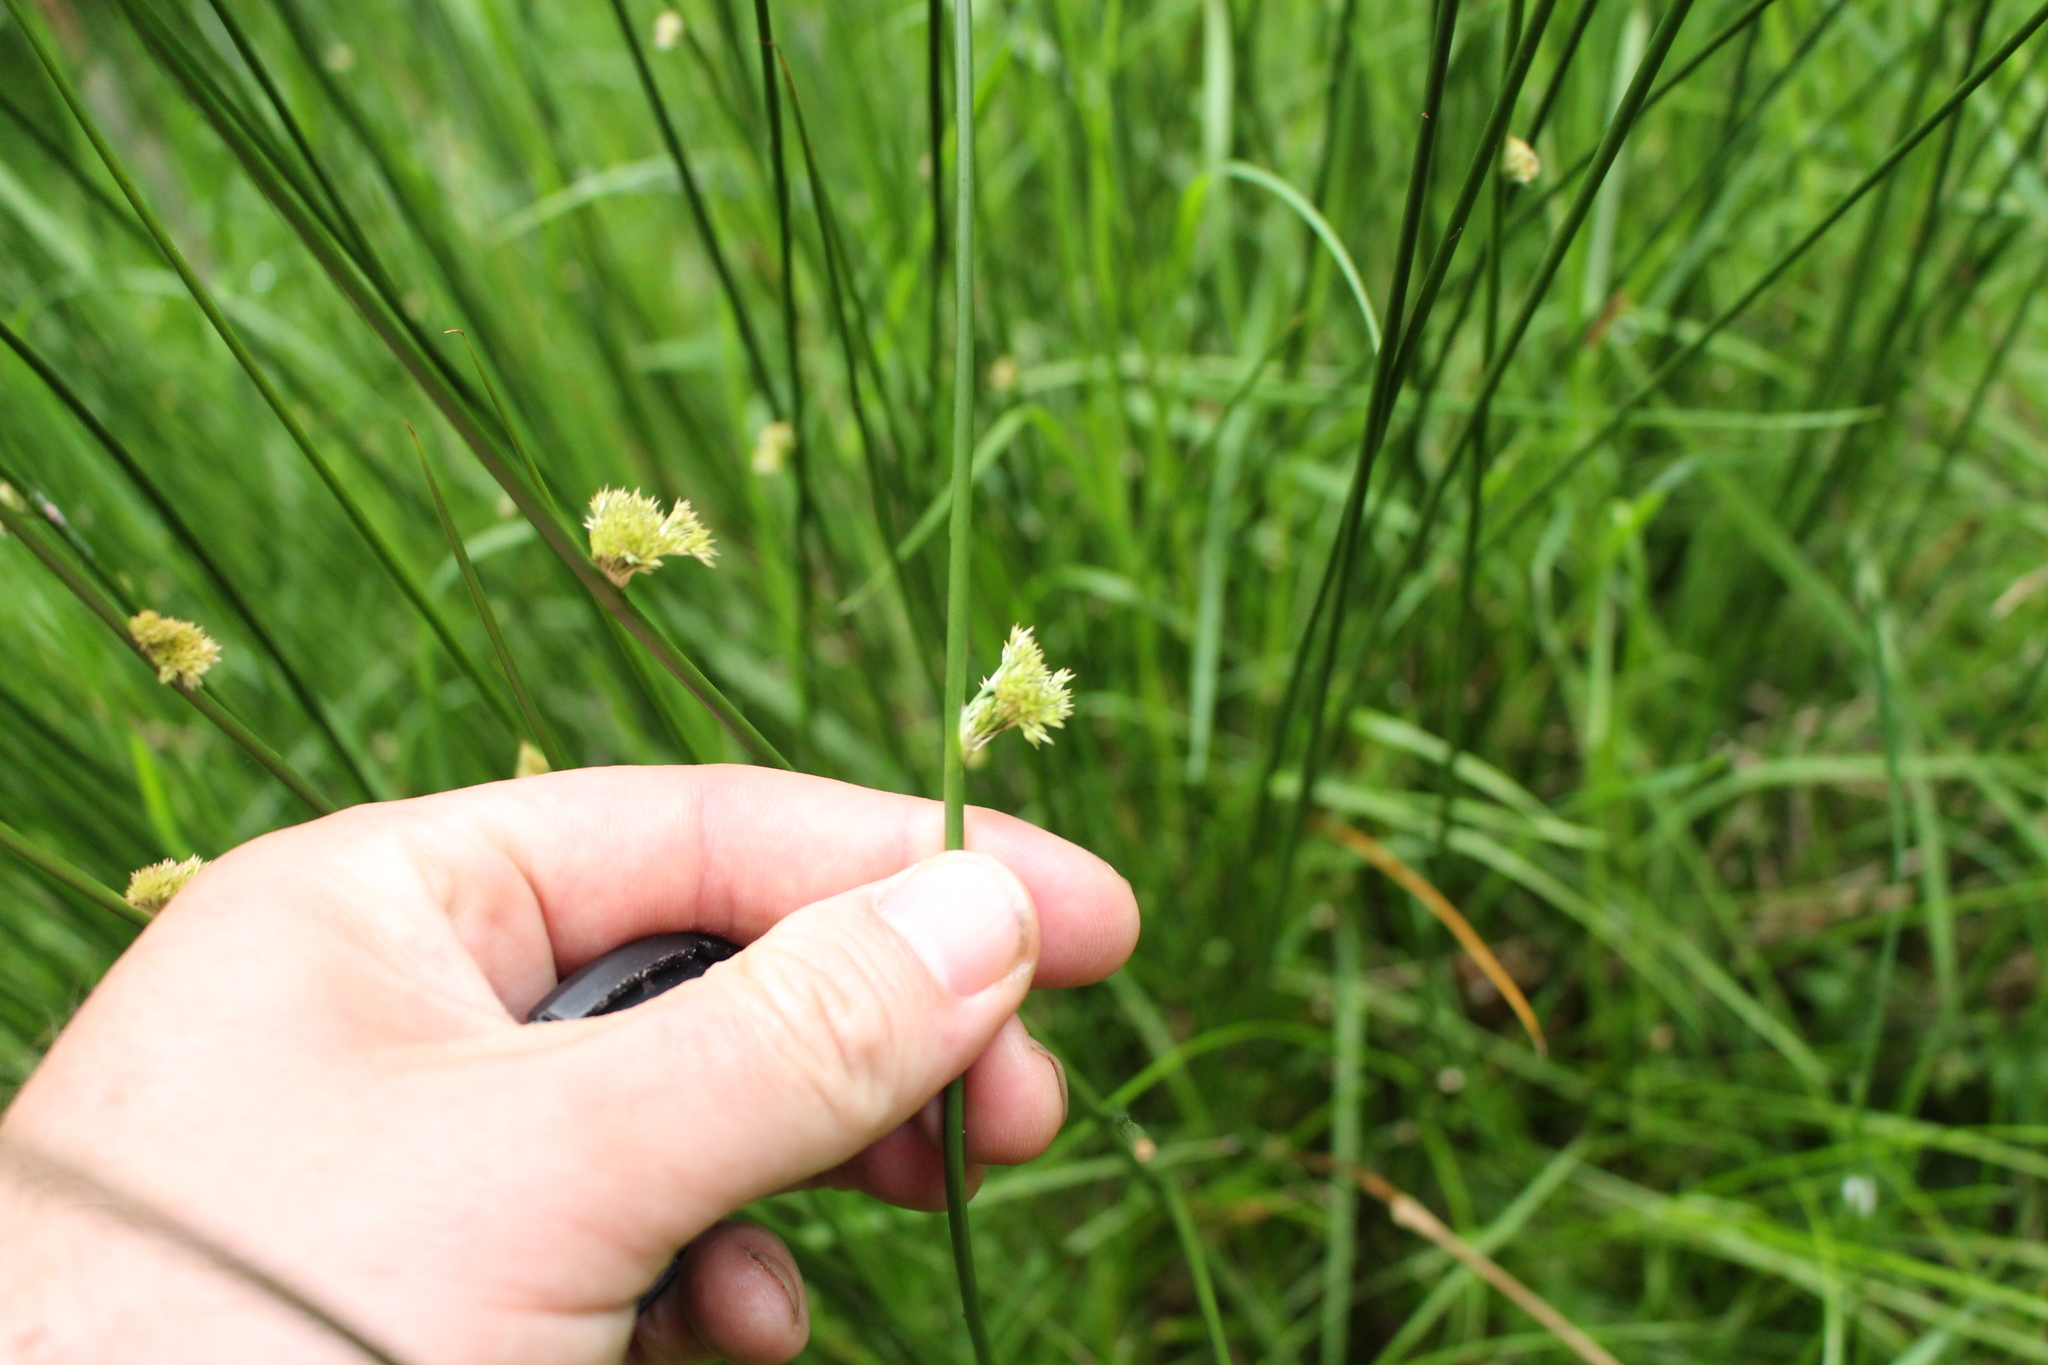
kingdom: Plantae
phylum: Tracheophyta
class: Liliopsida
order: Poales
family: Juncaceae
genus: Juncus
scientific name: Juncus effusus
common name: Soft rush
